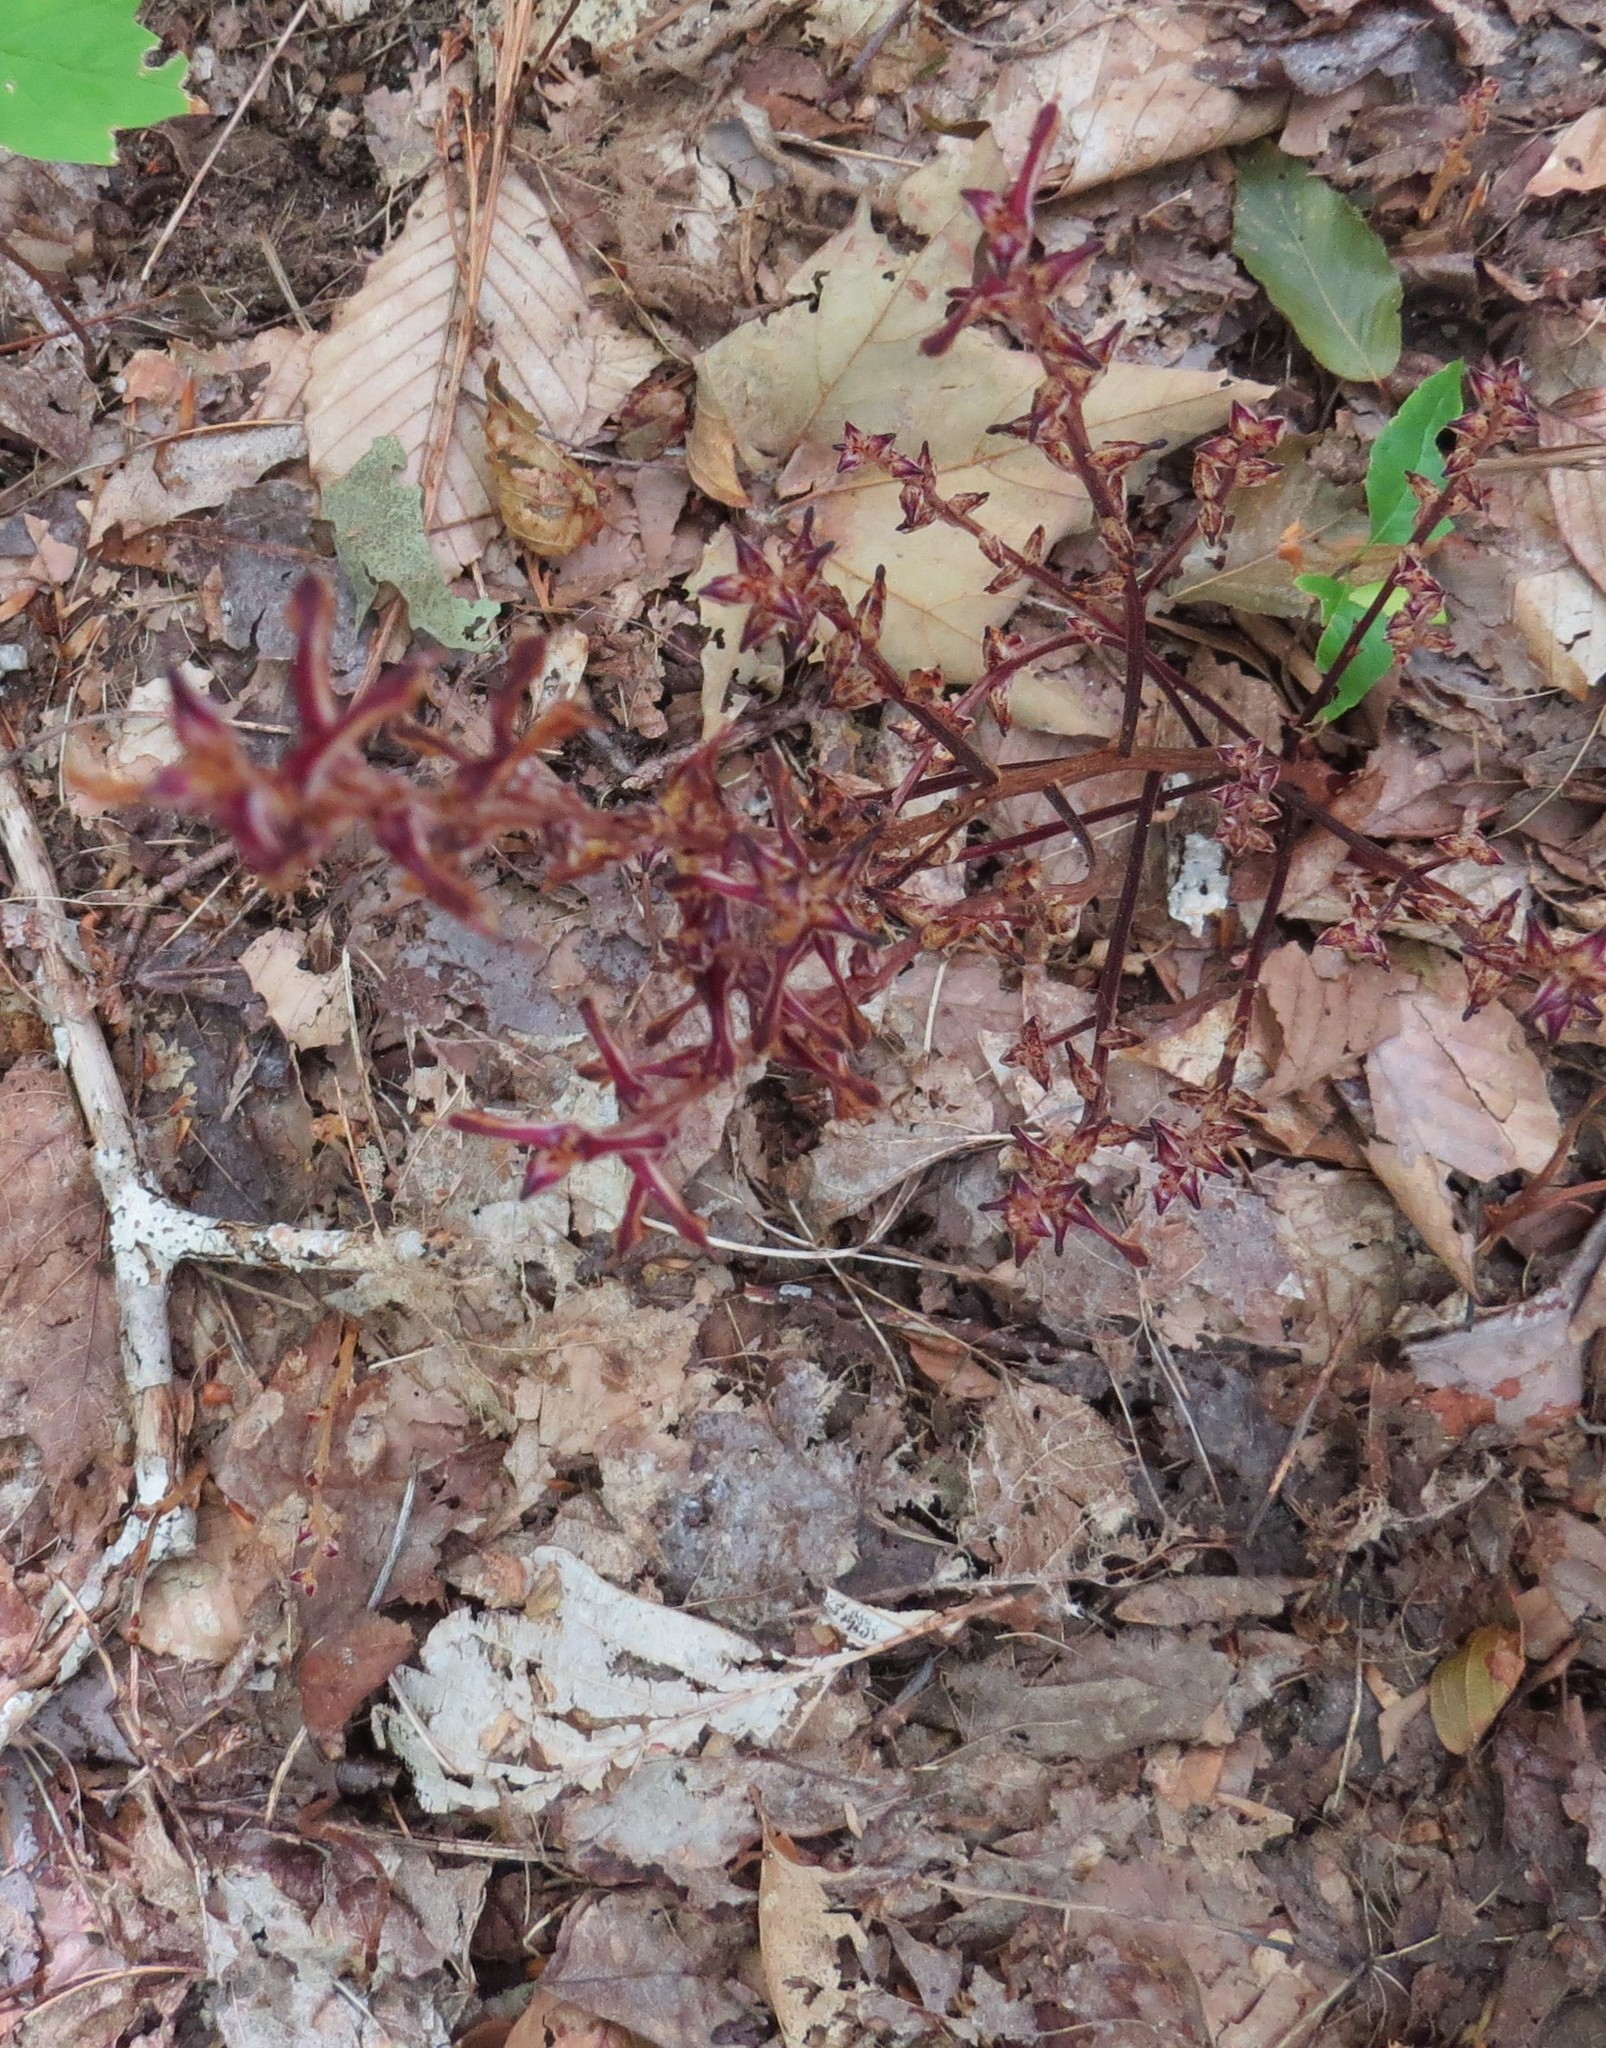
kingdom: Plantae
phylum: Tracheophyta
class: Magnoliopsida
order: Lamiales
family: Orobanchaceae
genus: Epifagus
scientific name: Epifagus virginiana
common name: Beechdrops
